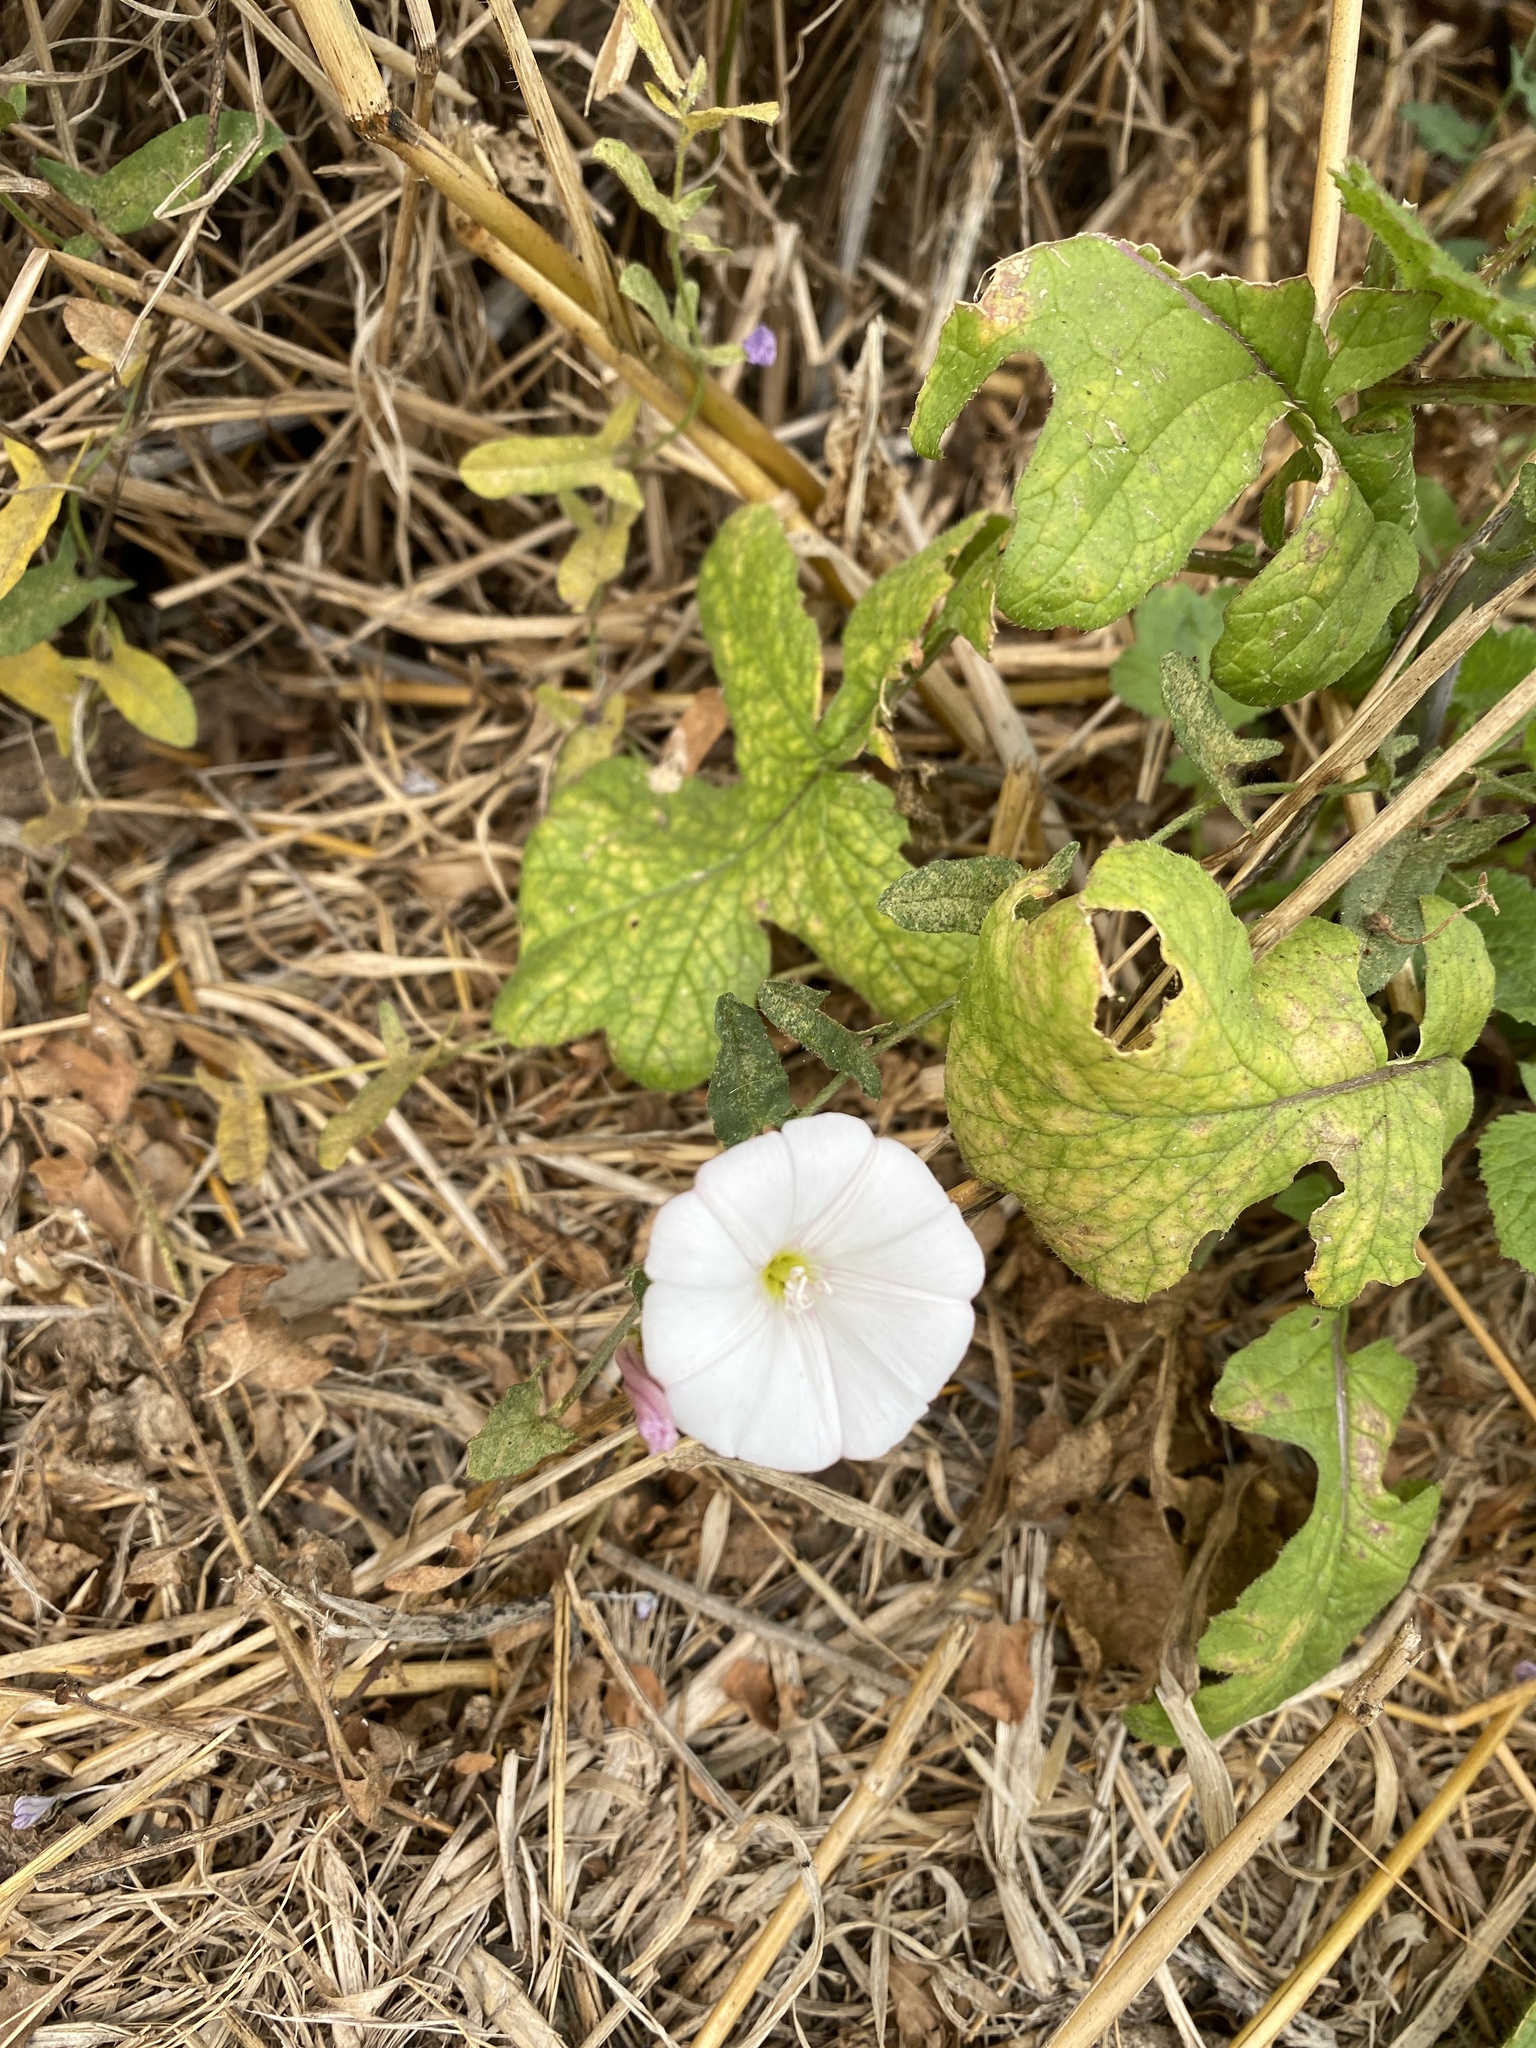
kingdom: Plantae
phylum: Tracheophyta
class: Magnoliopsida
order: Solanales
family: Convolvulaceae
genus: Convolvulus
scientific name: Convolvulus arvensis
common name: Field bindweed
